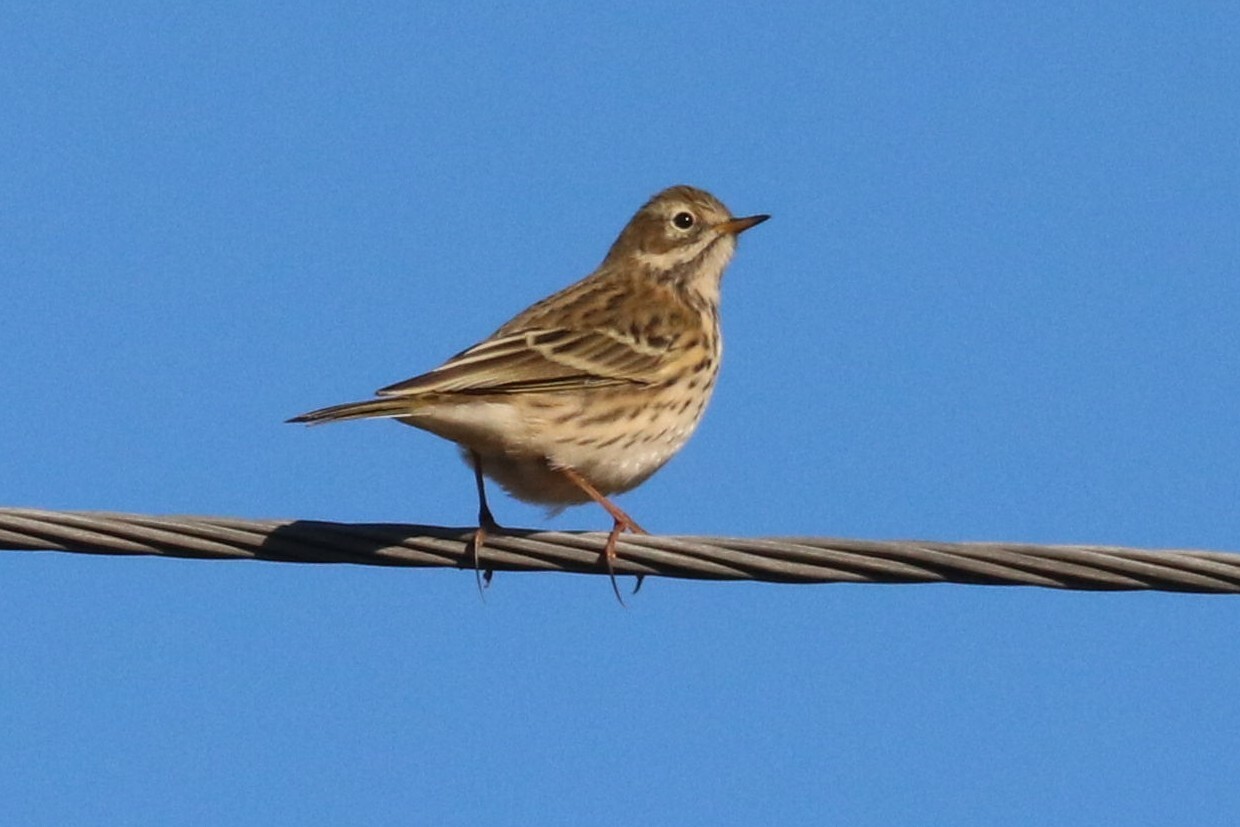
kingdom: Animalia
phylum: Chordata
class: Aves
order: Passeriformes
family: Motacillidae
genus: Anthus
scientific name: Anthus pratensis
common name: Meadow pipit
